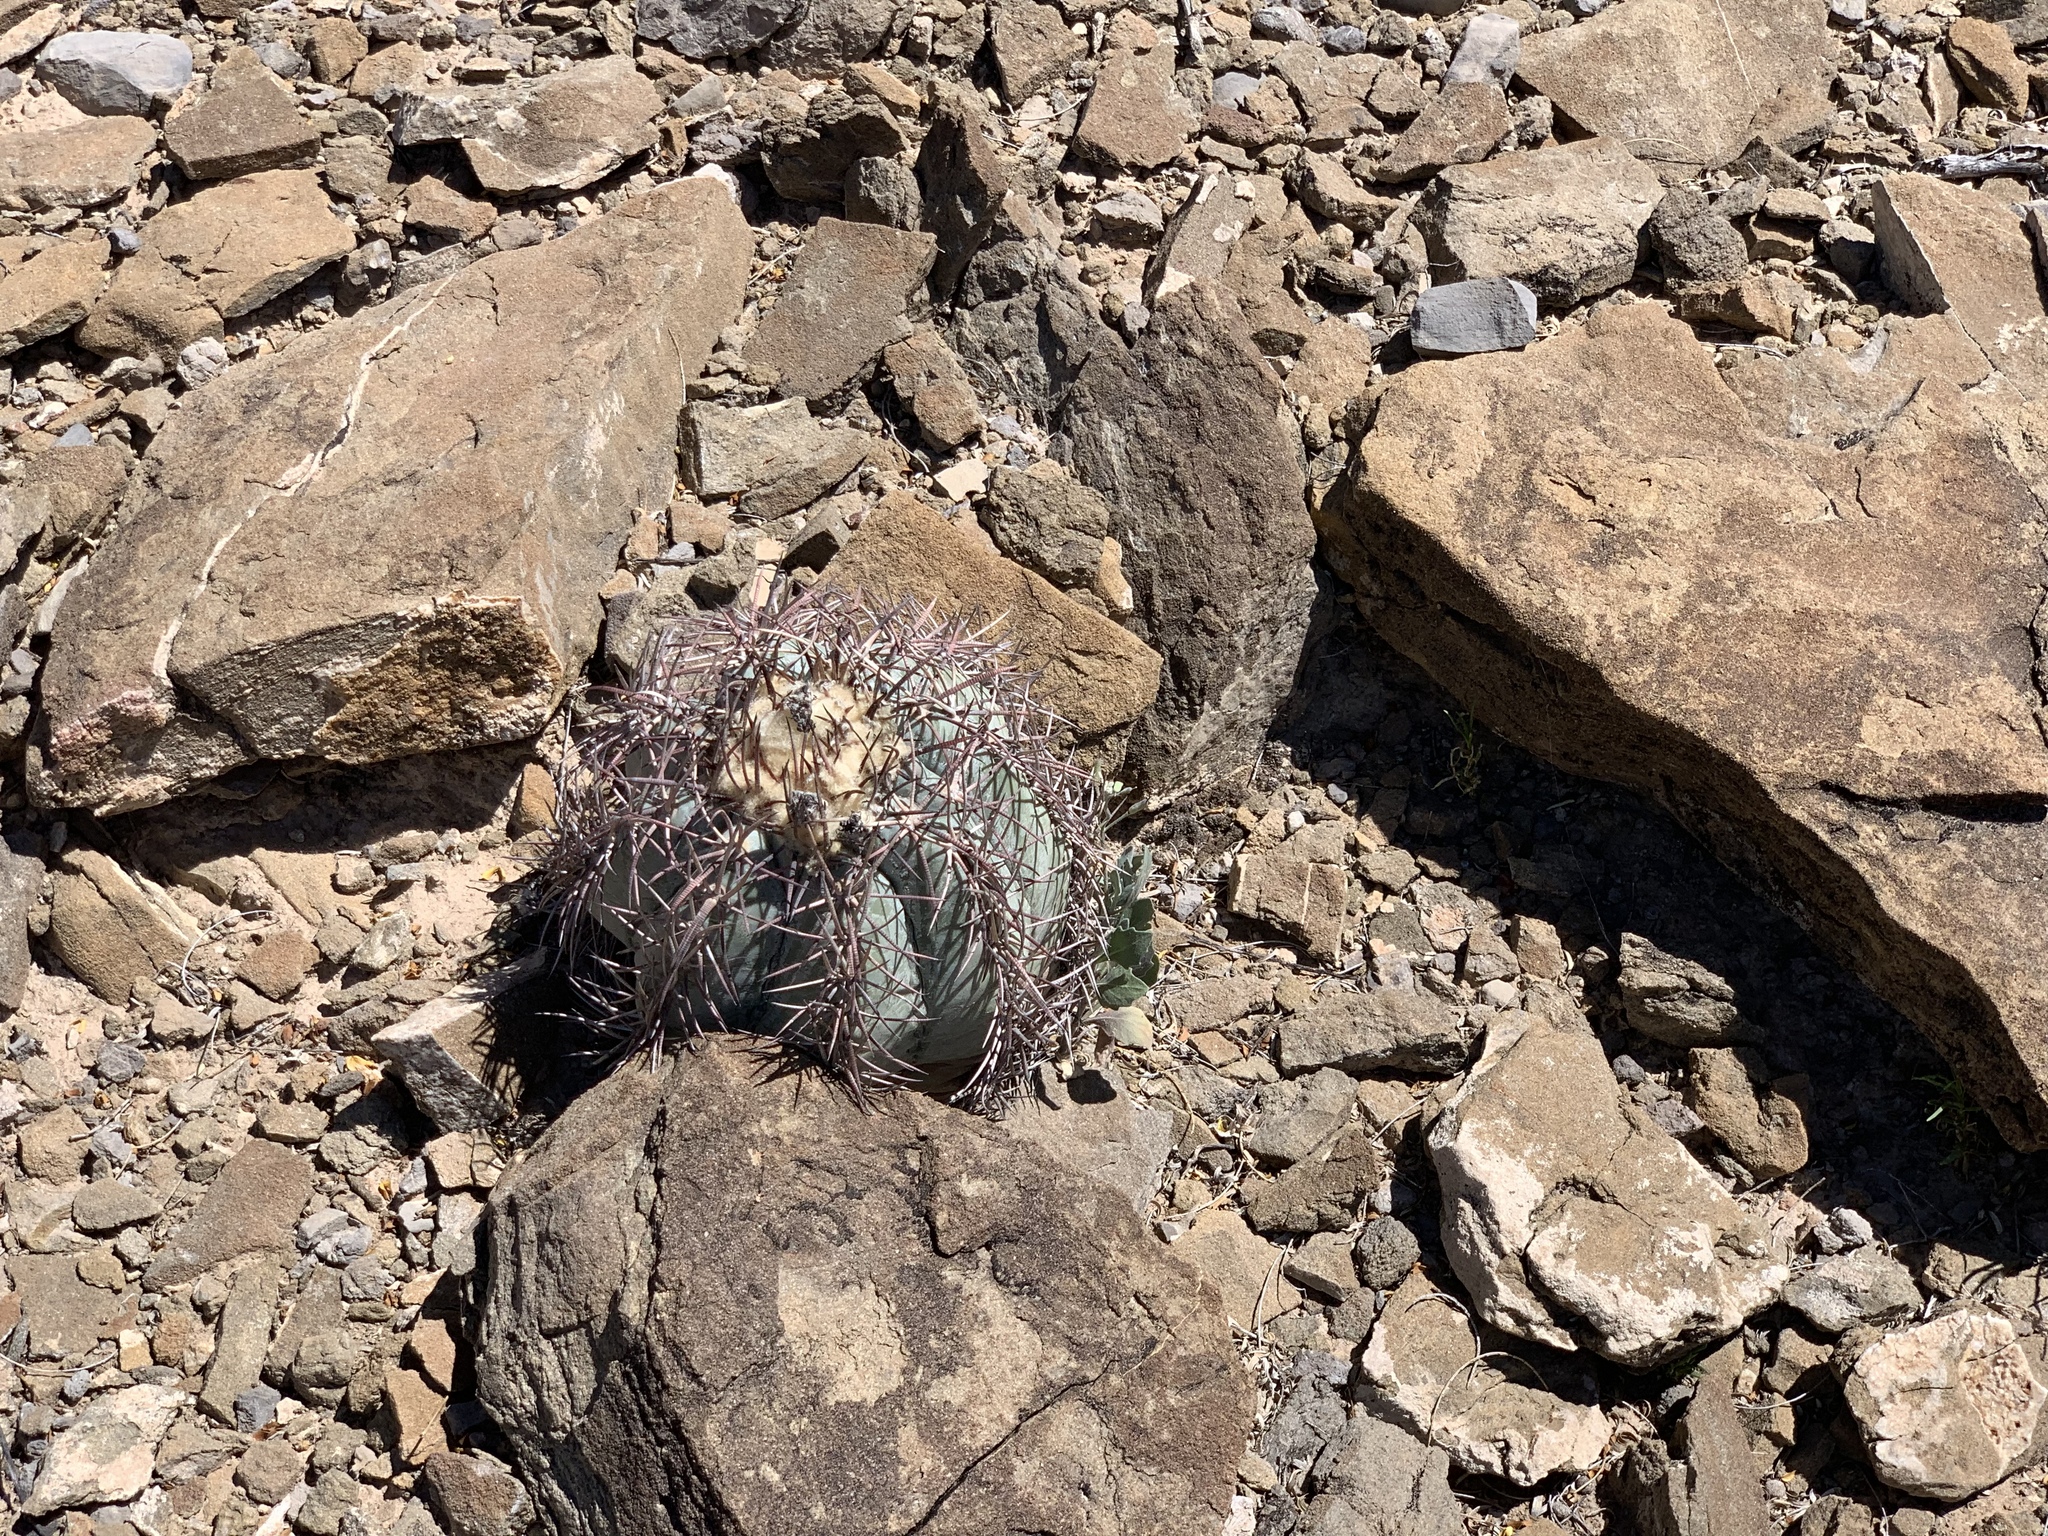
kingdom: Plantae
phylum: Tracheophyta
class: Magnoliopsida
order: Caryophyllales
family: Cactaceae
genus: Echinocactus
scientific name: Echinocactus horizonthalonius
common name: Devilshead
